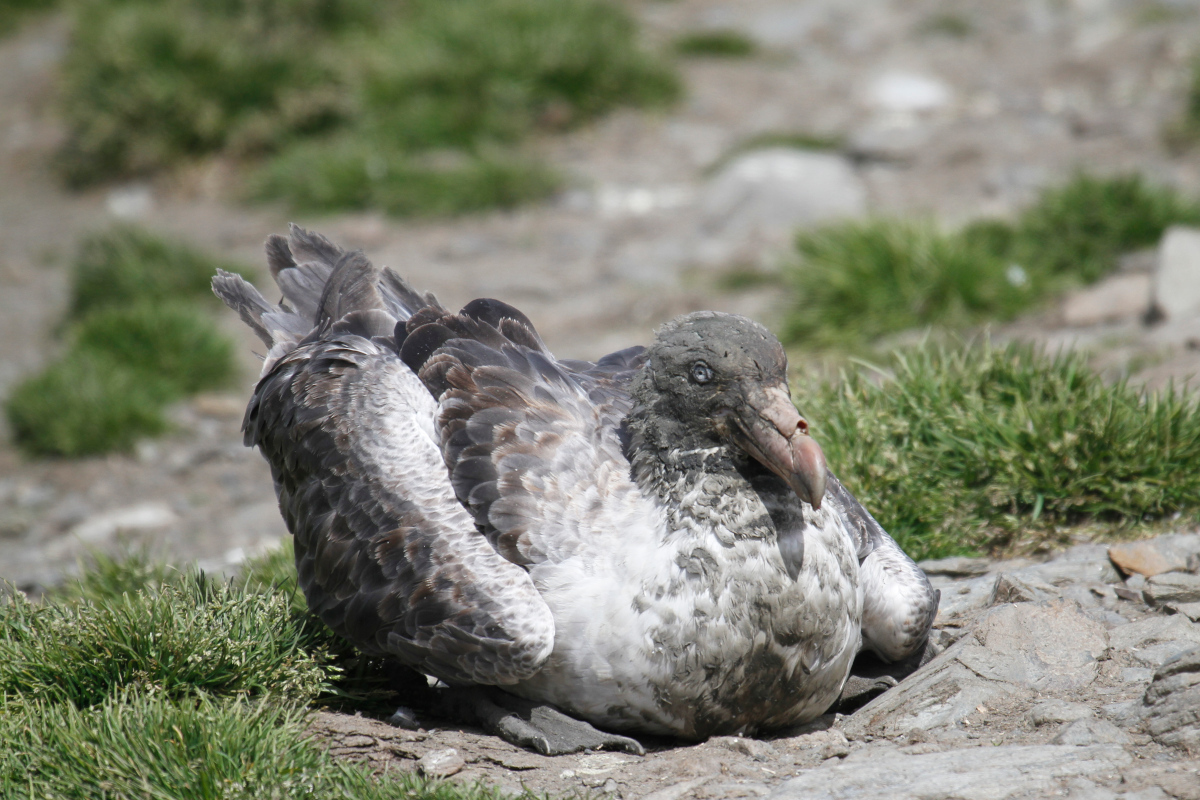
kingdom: Animalia
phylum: Chordata
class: Aves
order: Procellariiformes
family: Procellariidae
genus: Macronectes
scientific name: Macronectes halli
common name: Northern giant petrel
